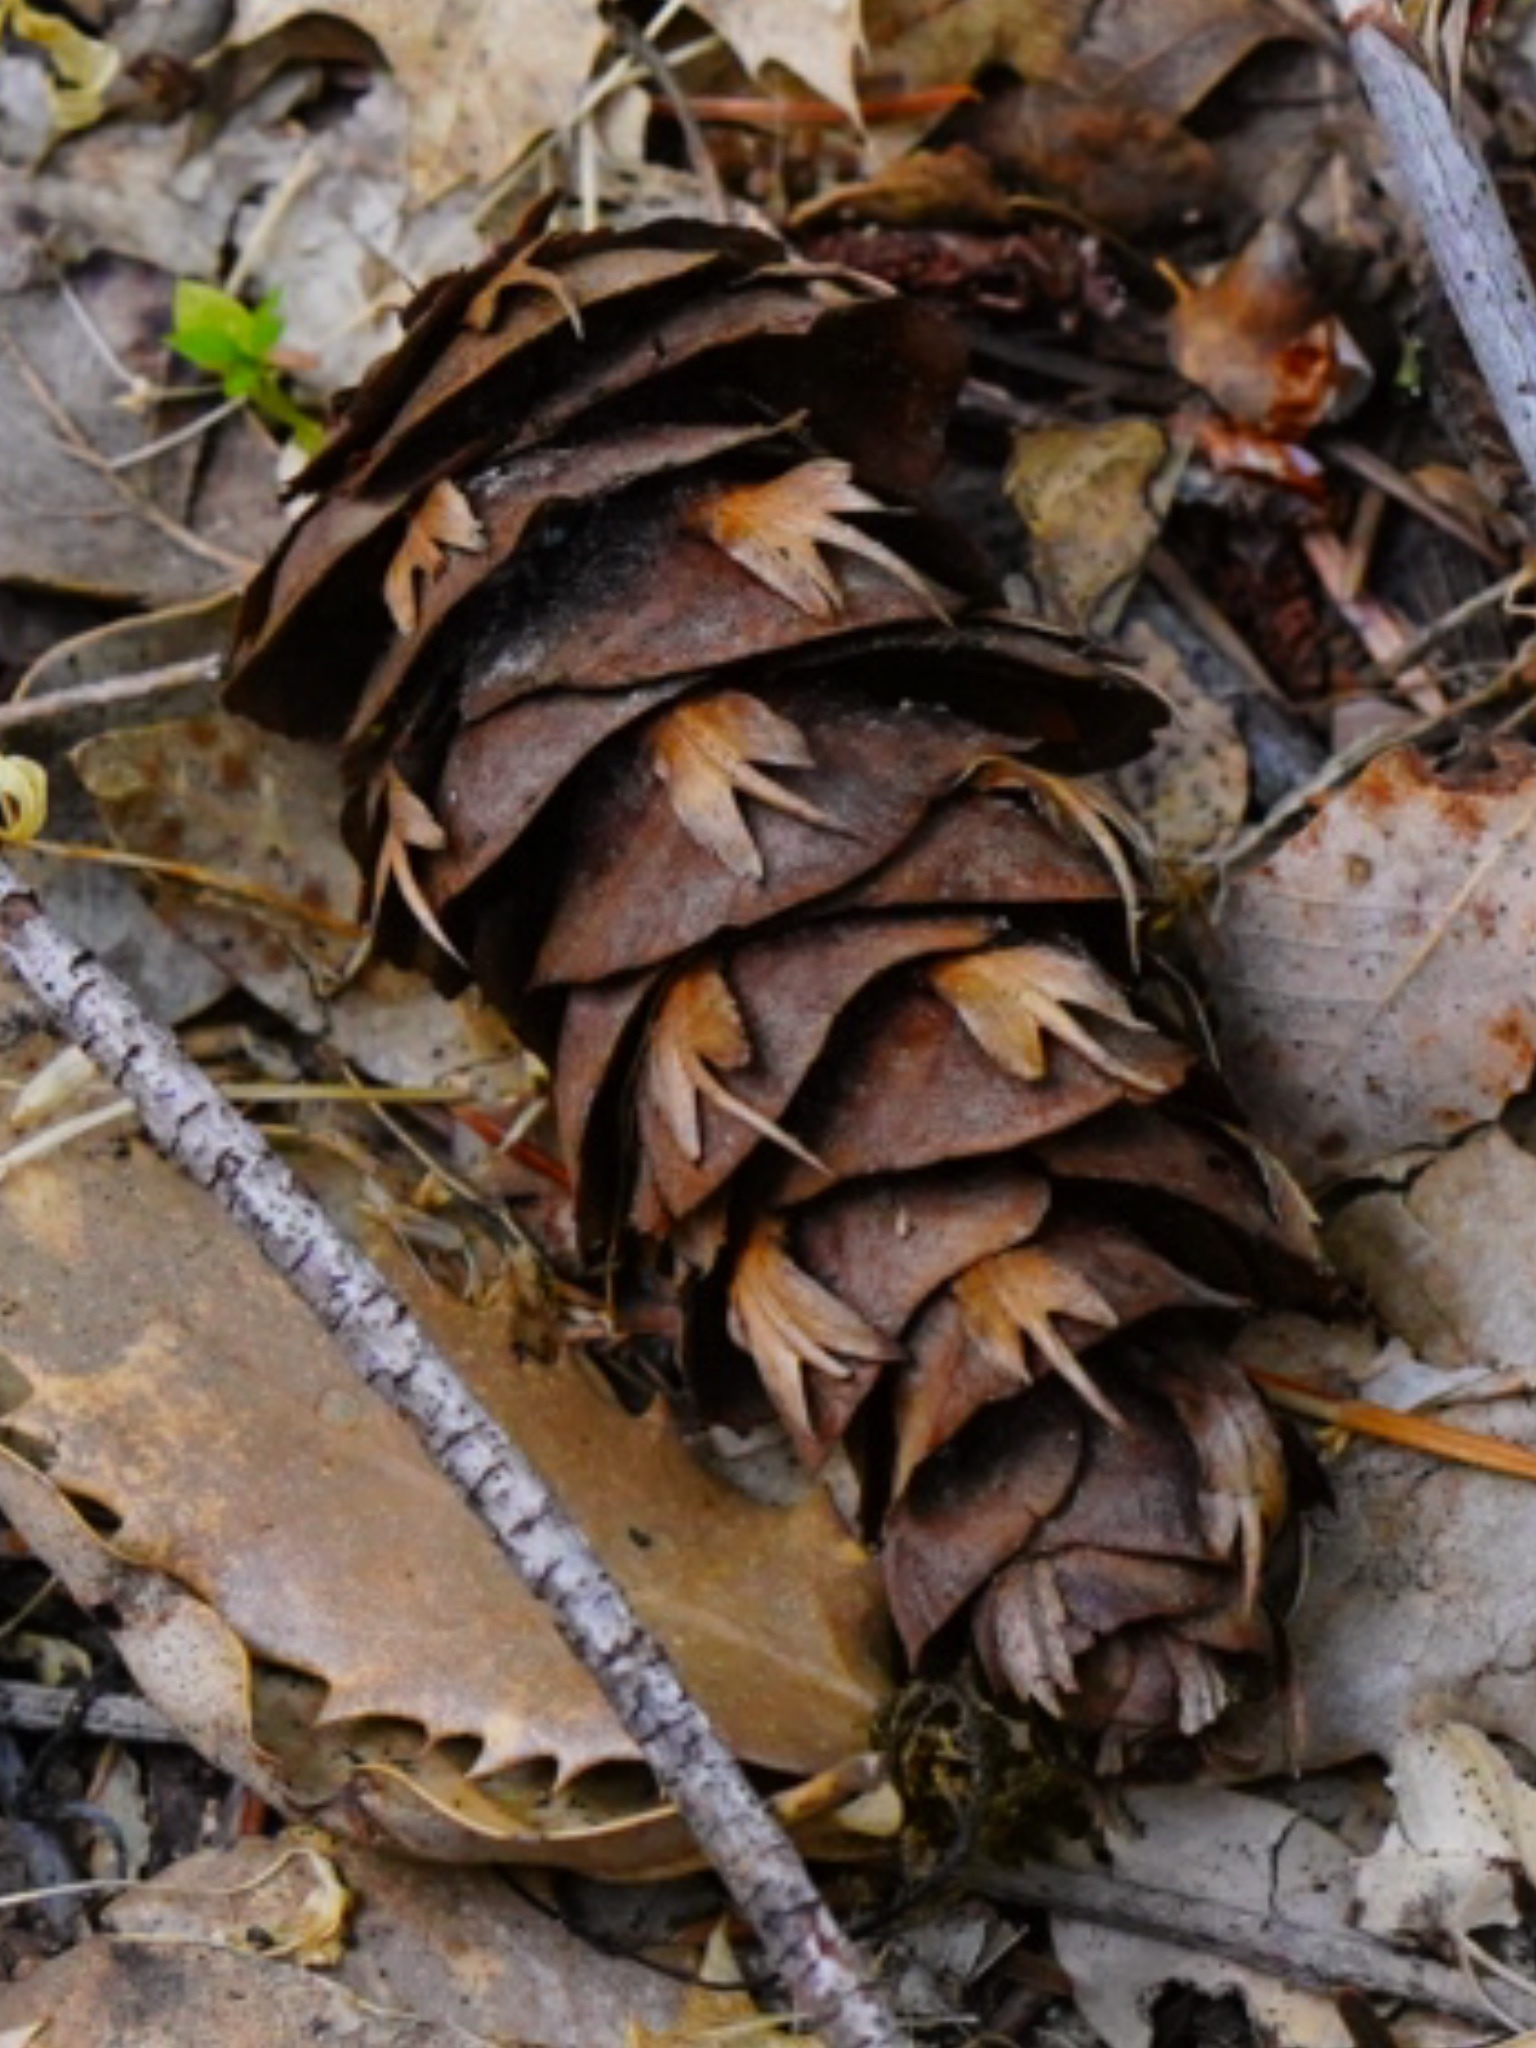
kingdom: Plantae
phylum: Tracheophyta
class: Pinopsida
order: Pinales
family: Pinaceae
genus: Pseudotsuga
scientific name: Pseudotsuga menziesii
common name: Douglas fir
